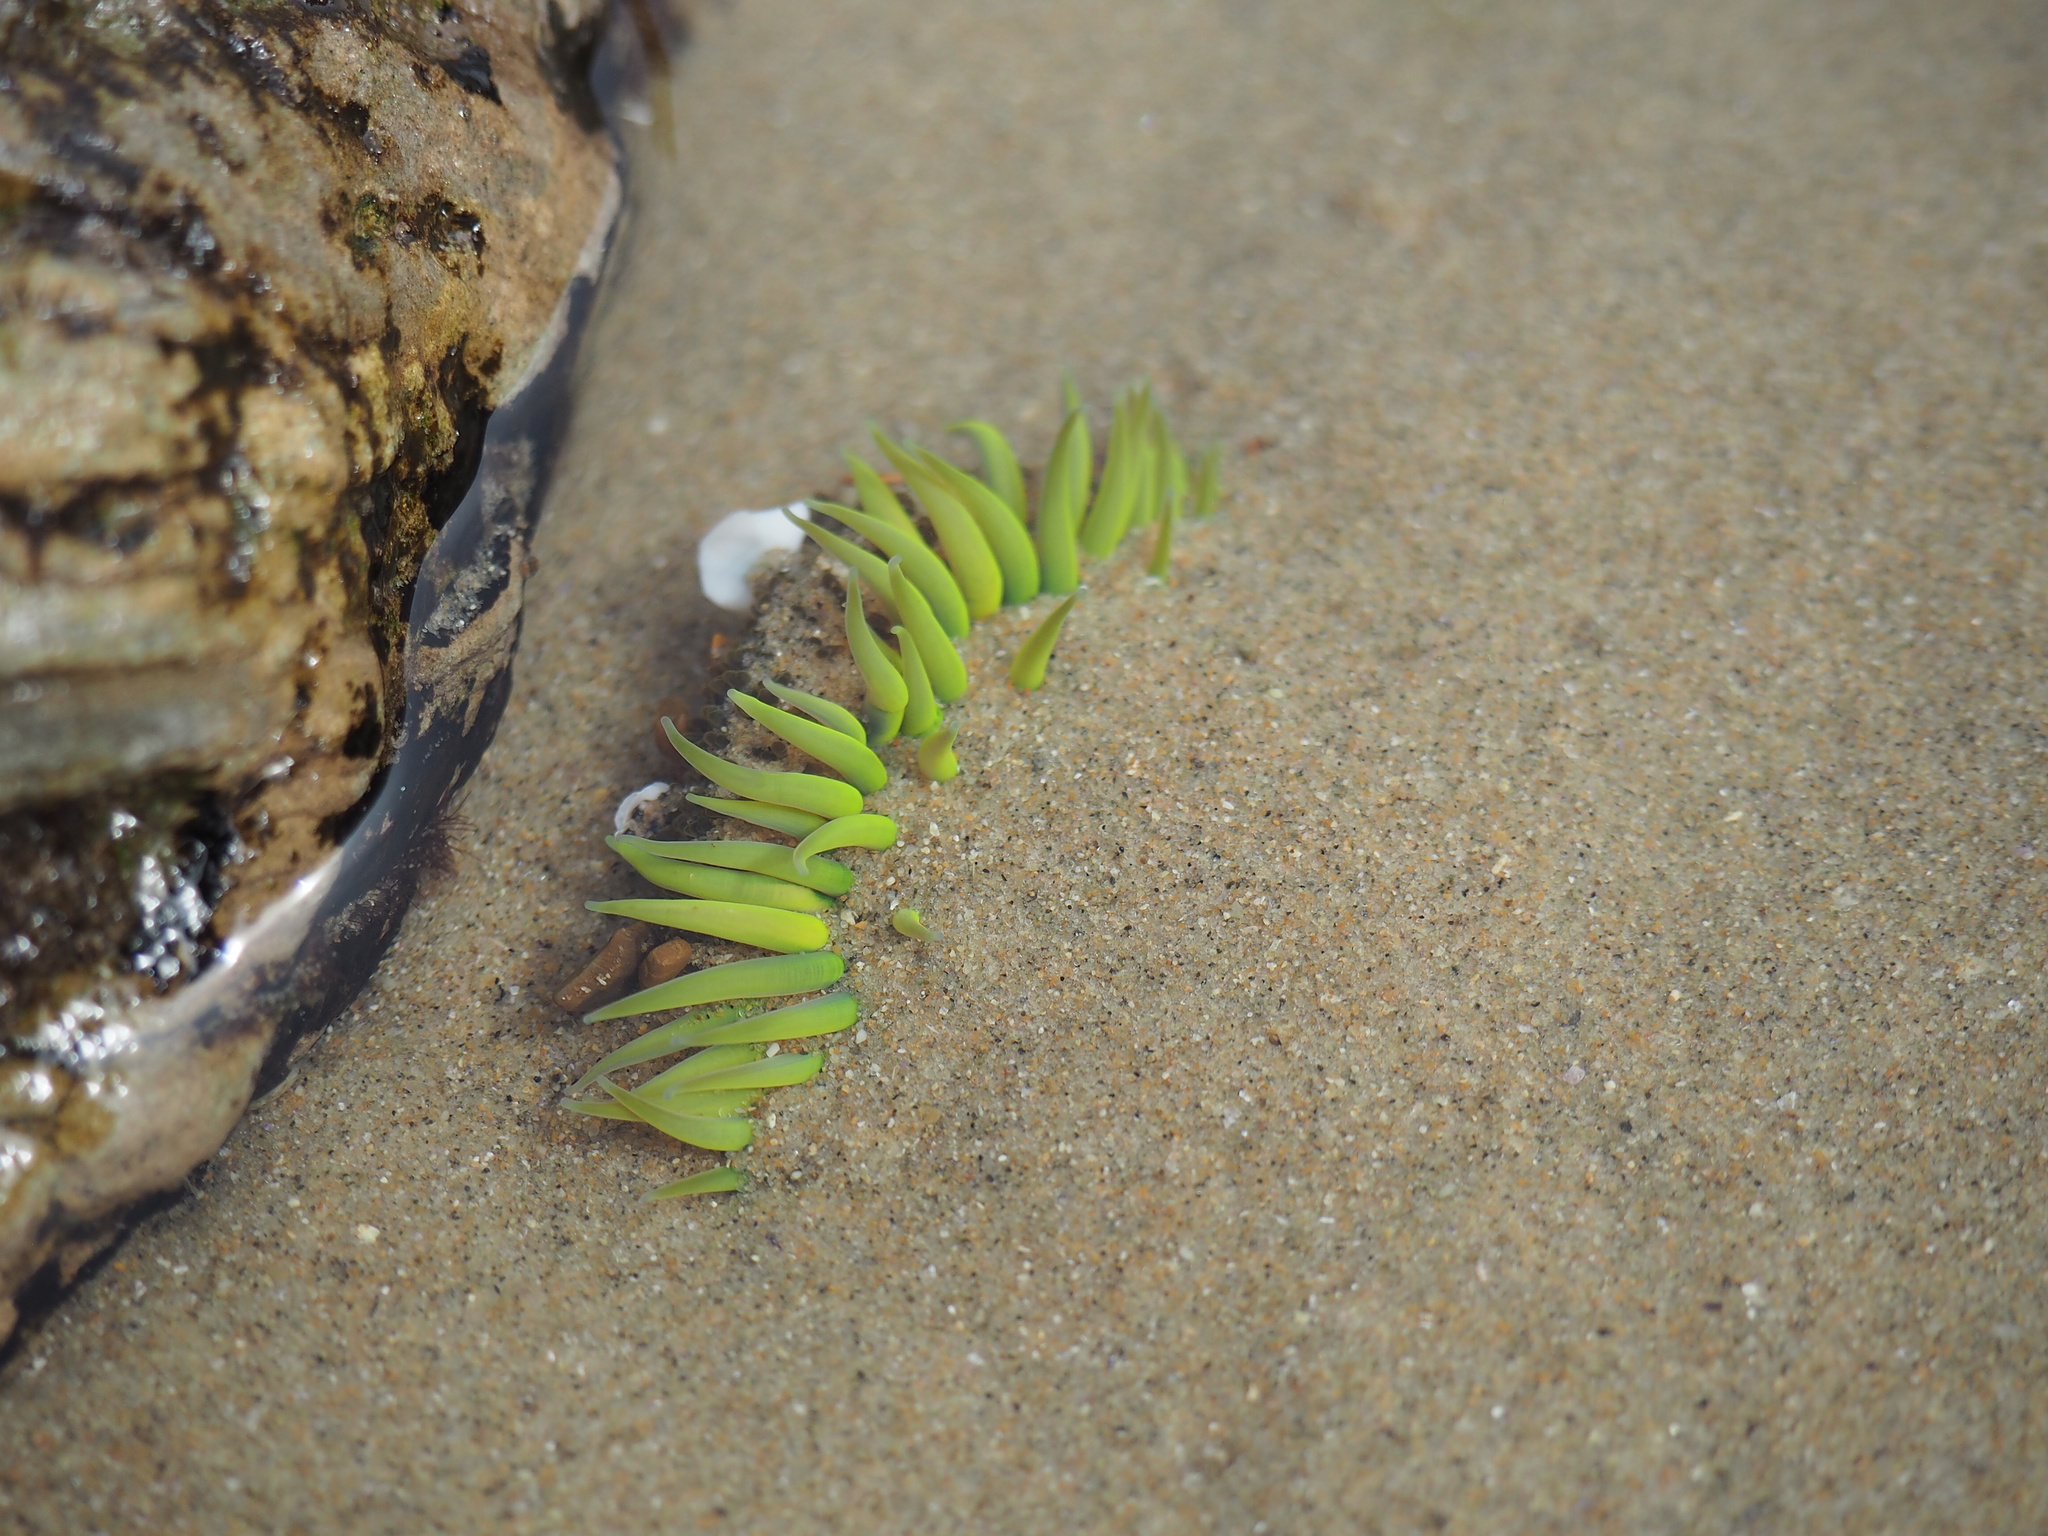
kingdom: Animalia
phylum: Cnidaria
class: Anthozoa
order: Actiniaria
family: Actiniidae
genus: Anthopleura
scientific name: Anthopleura sola
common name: Sun anemone
